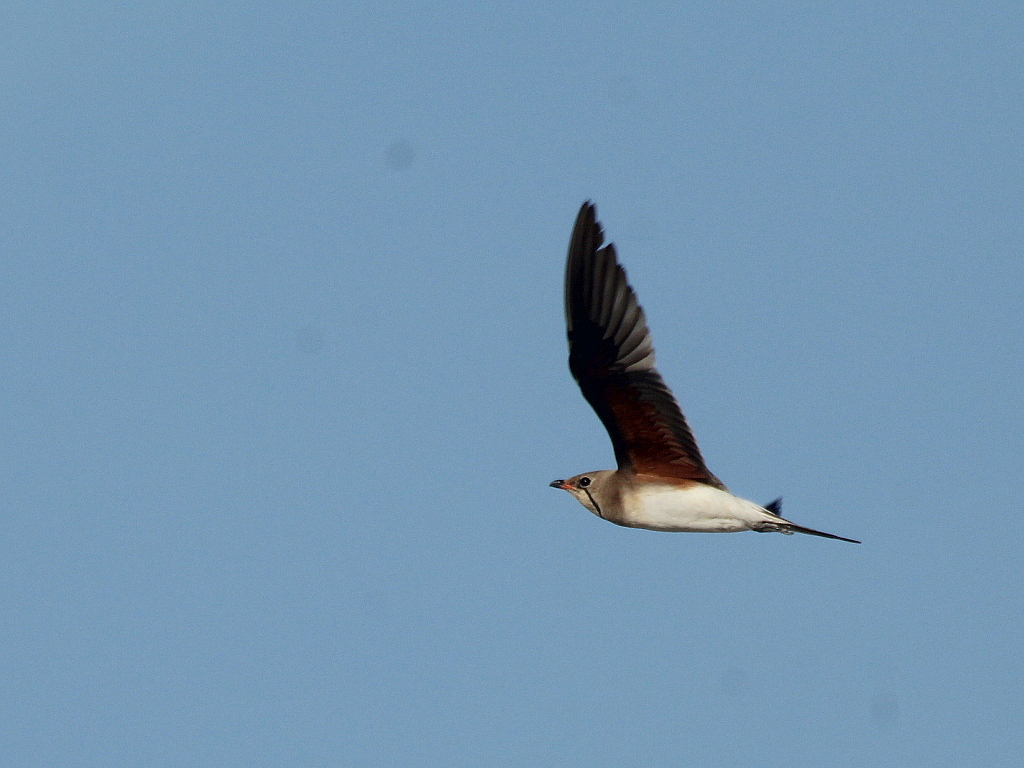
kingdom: Animalia
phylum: Chordata
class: Aves
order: Charadriiformes
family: Glareolidae
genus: Glareola
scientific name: Glareola pratincola
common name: Collared pratincole
